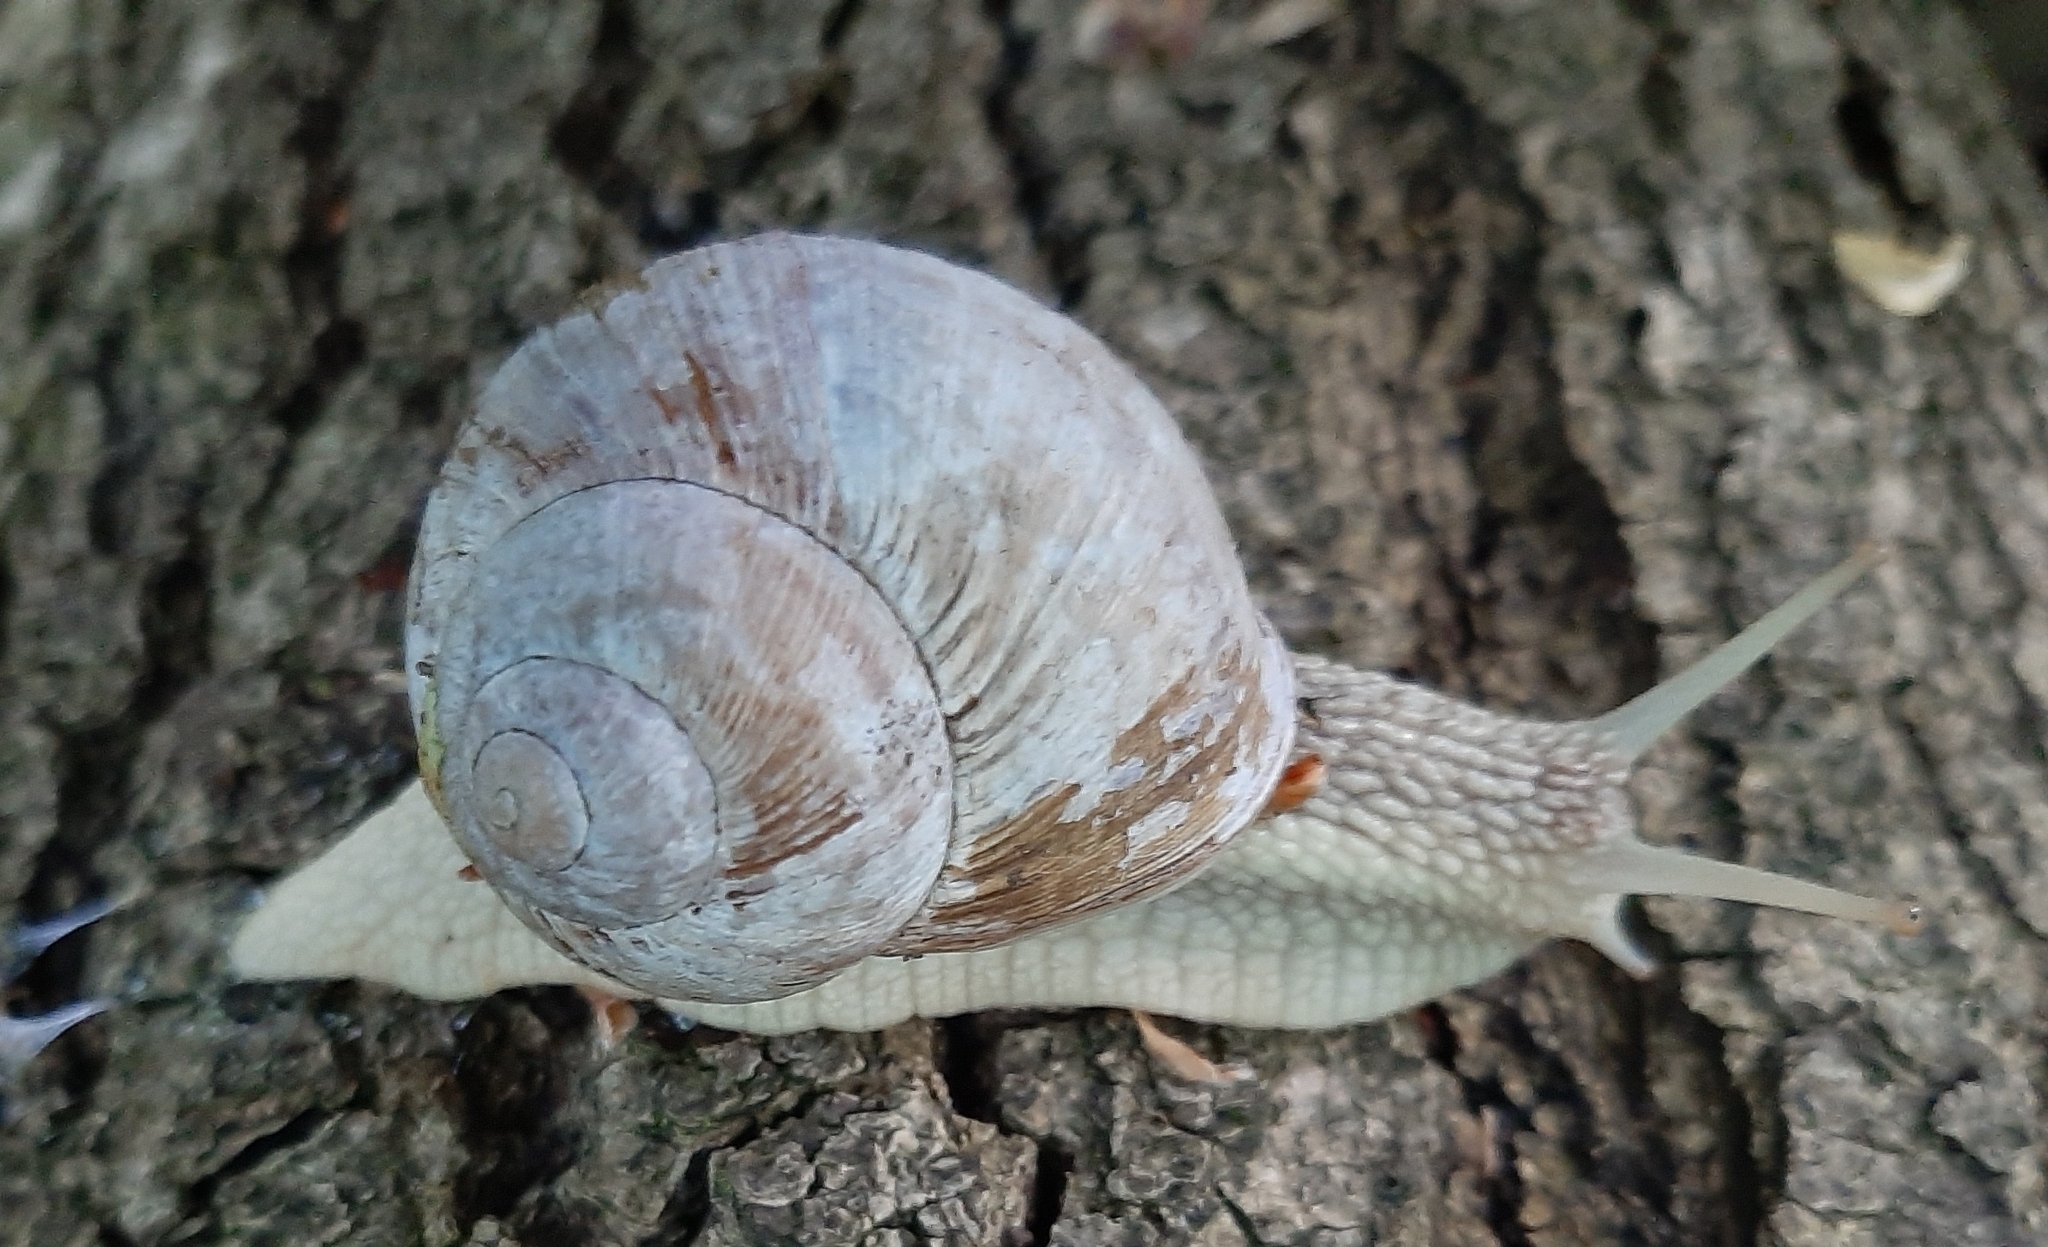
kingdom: Animalia
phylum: Mollusca
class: Gastropoda
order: Stylommatophora
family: Helicidae
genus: Helix
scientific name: Helix pomatia
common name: Roman snail
